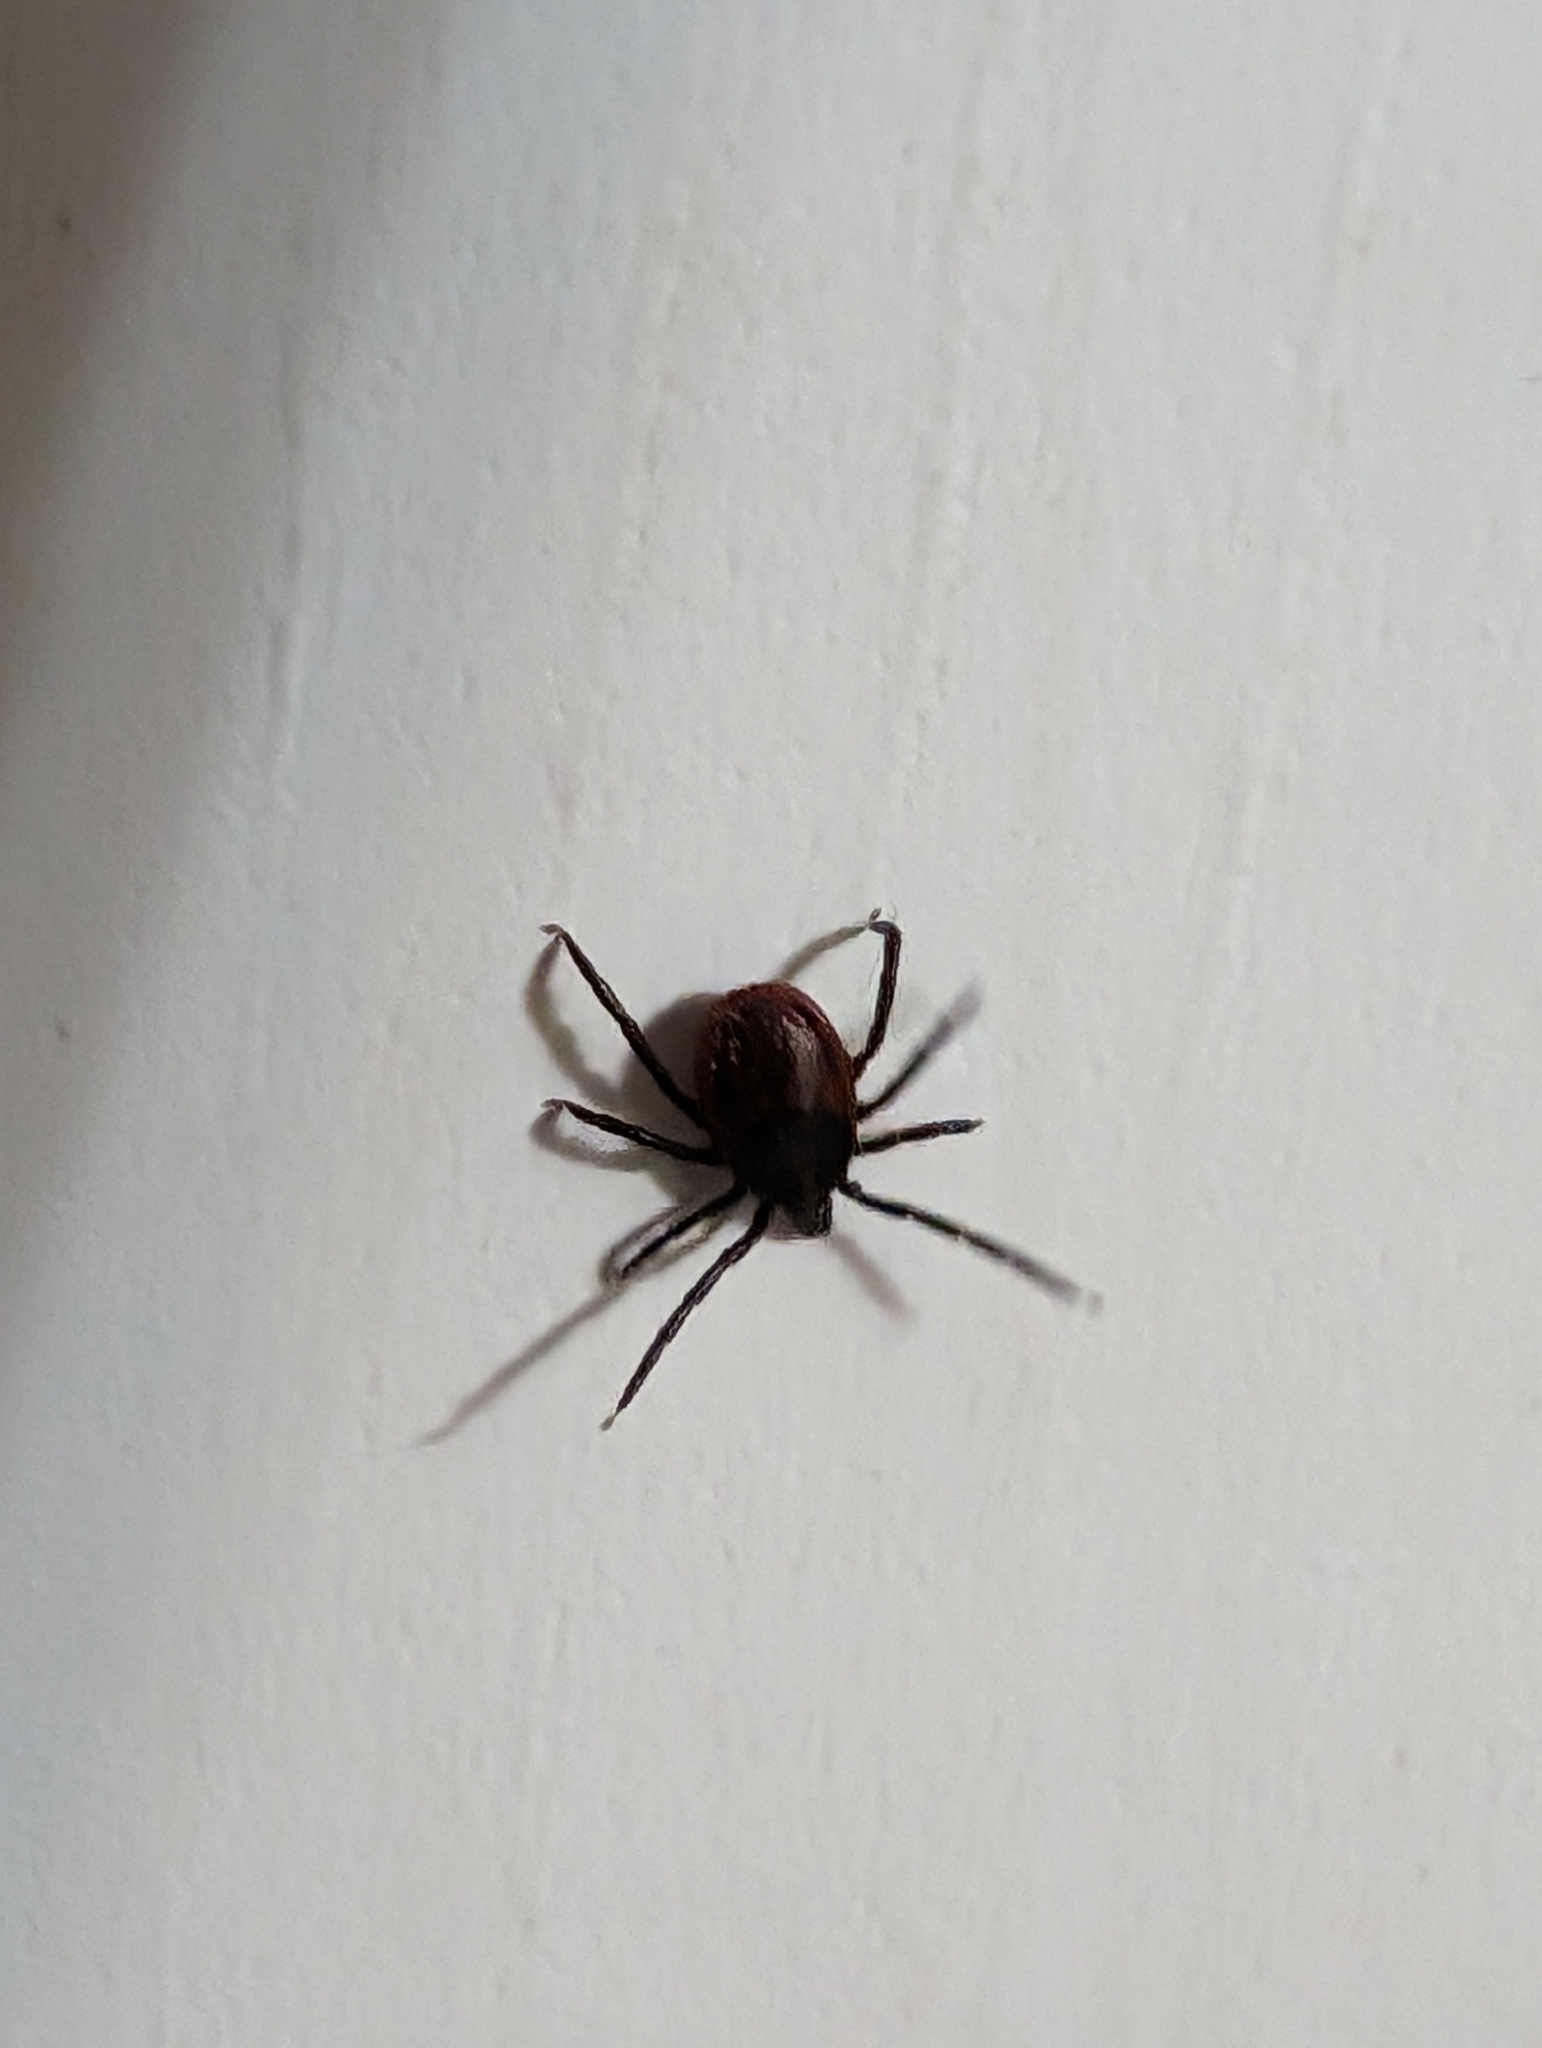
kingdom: Animalia
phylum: Arthropoda
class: Arachnida
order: Ixodida
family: Ixodidae
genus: Ixodes
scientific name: Ixodes pacificus
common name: California black-legged tick
